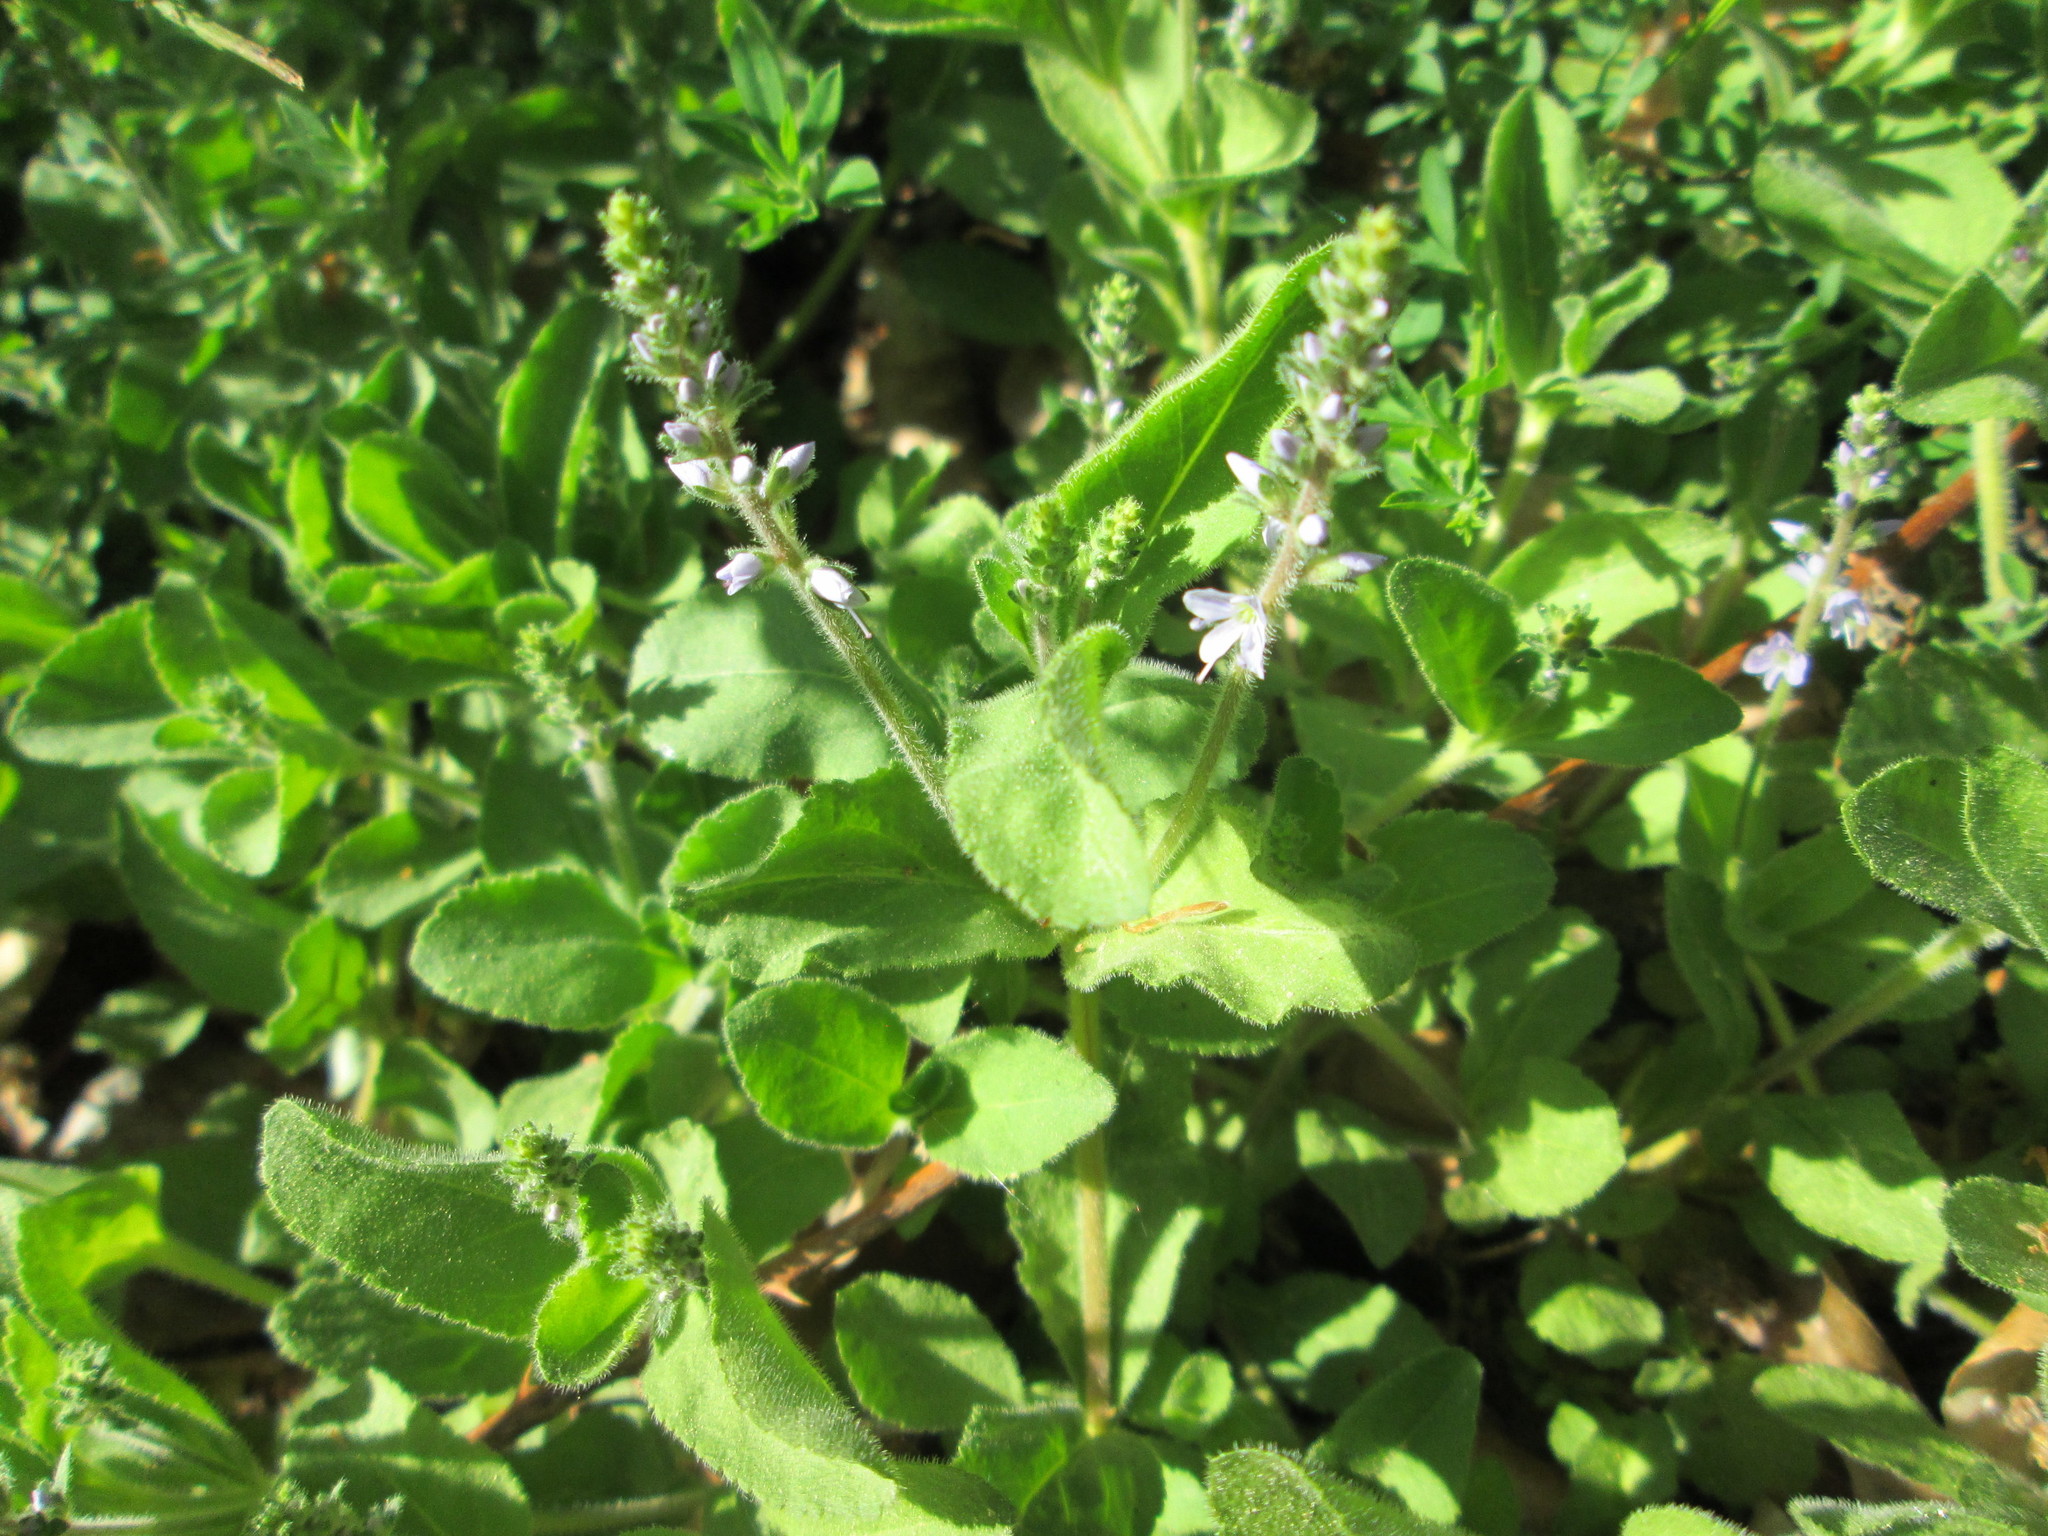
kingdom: Plantae
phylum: Tracheophyta
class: Magnoliopsida
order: Lamiales
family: Plantaginaceae
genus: Veronica
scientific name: Veronica officinalis
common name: Common speedwell
